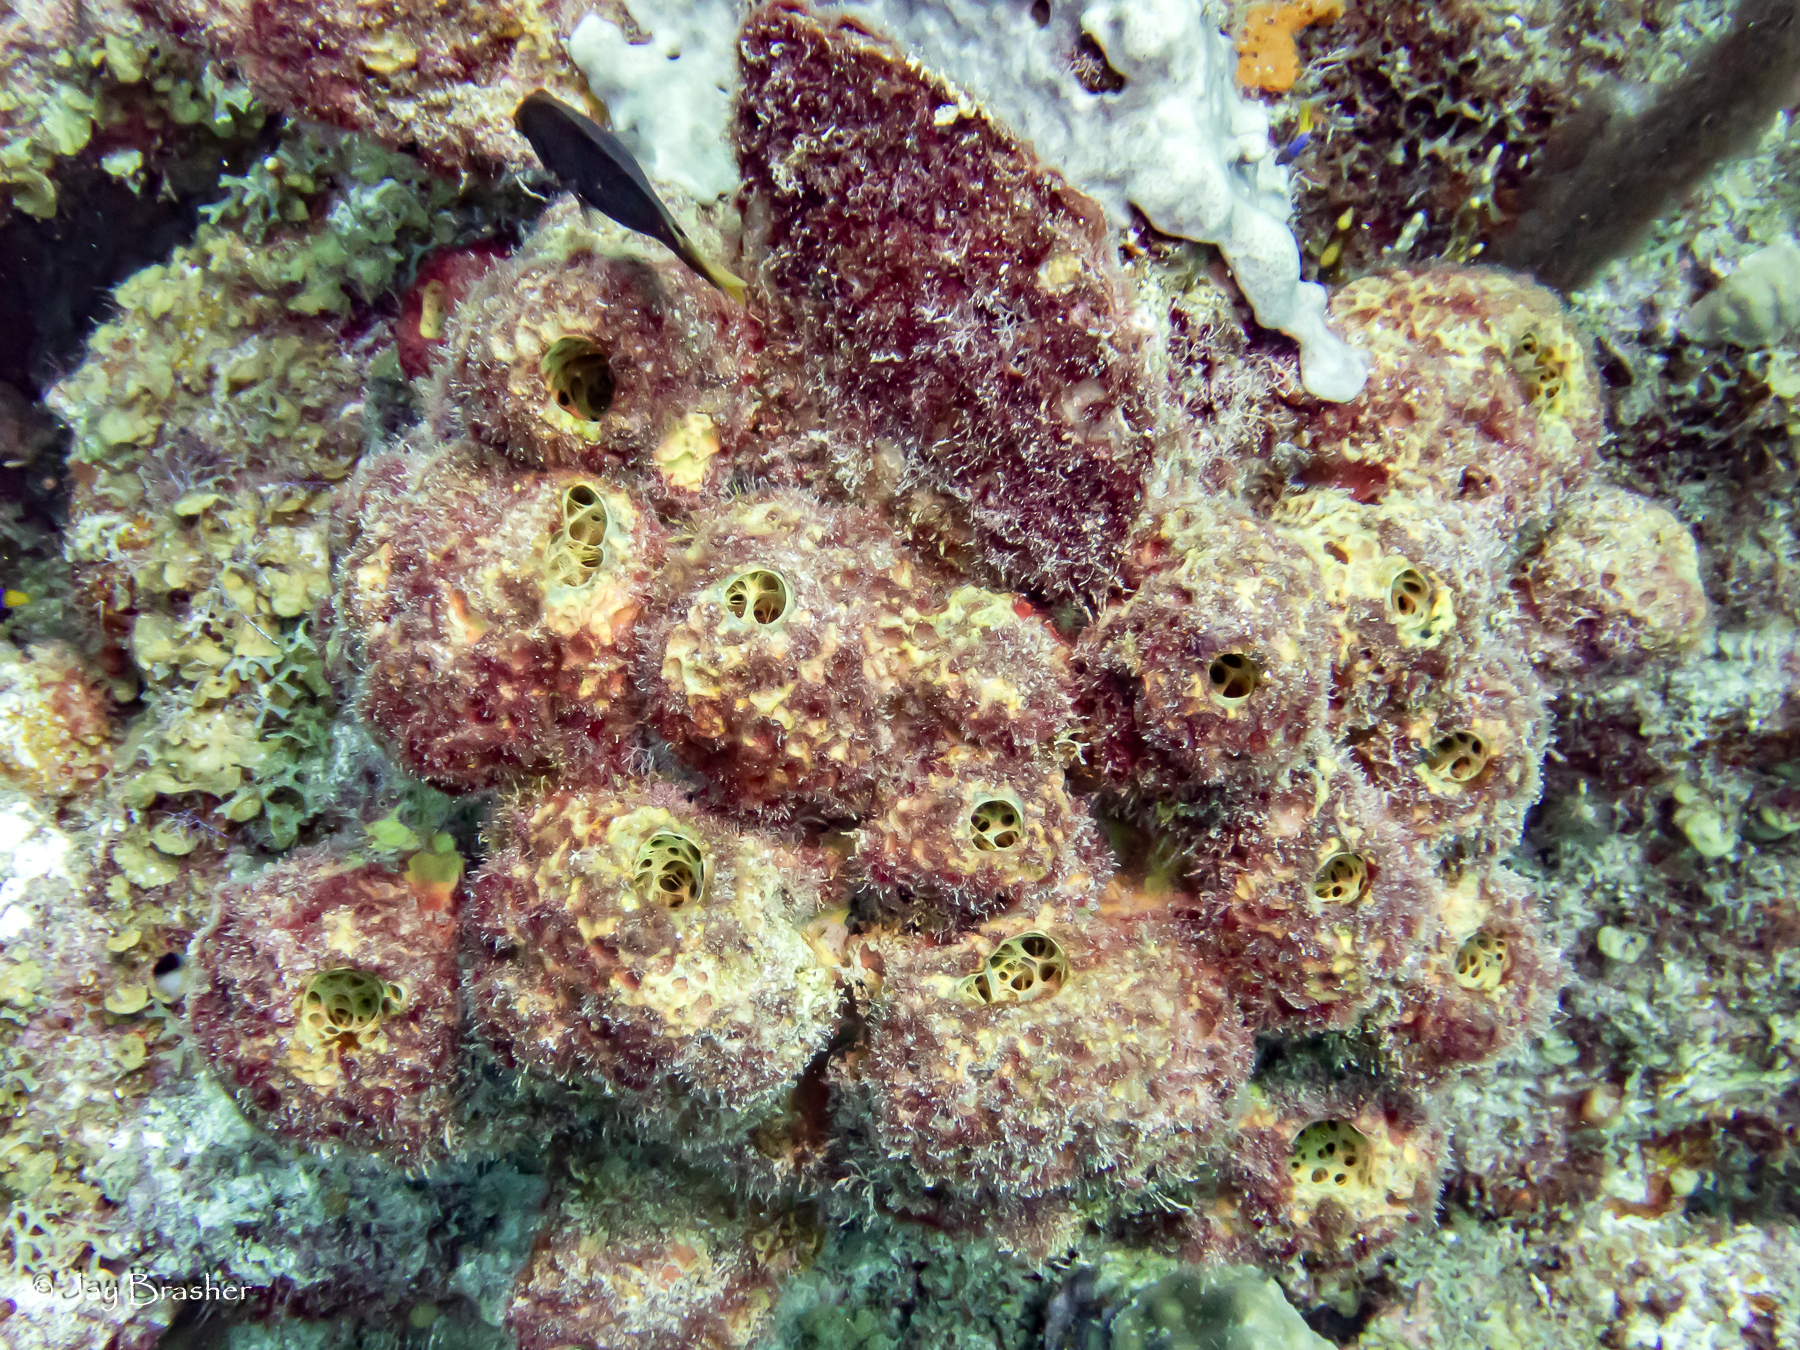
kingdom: Animalia
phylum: Porifera
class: Demospongiae
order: Verongiida
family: Aplysinidae
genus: Verongula
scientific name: Verongula rigida
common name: Pitted sponge
